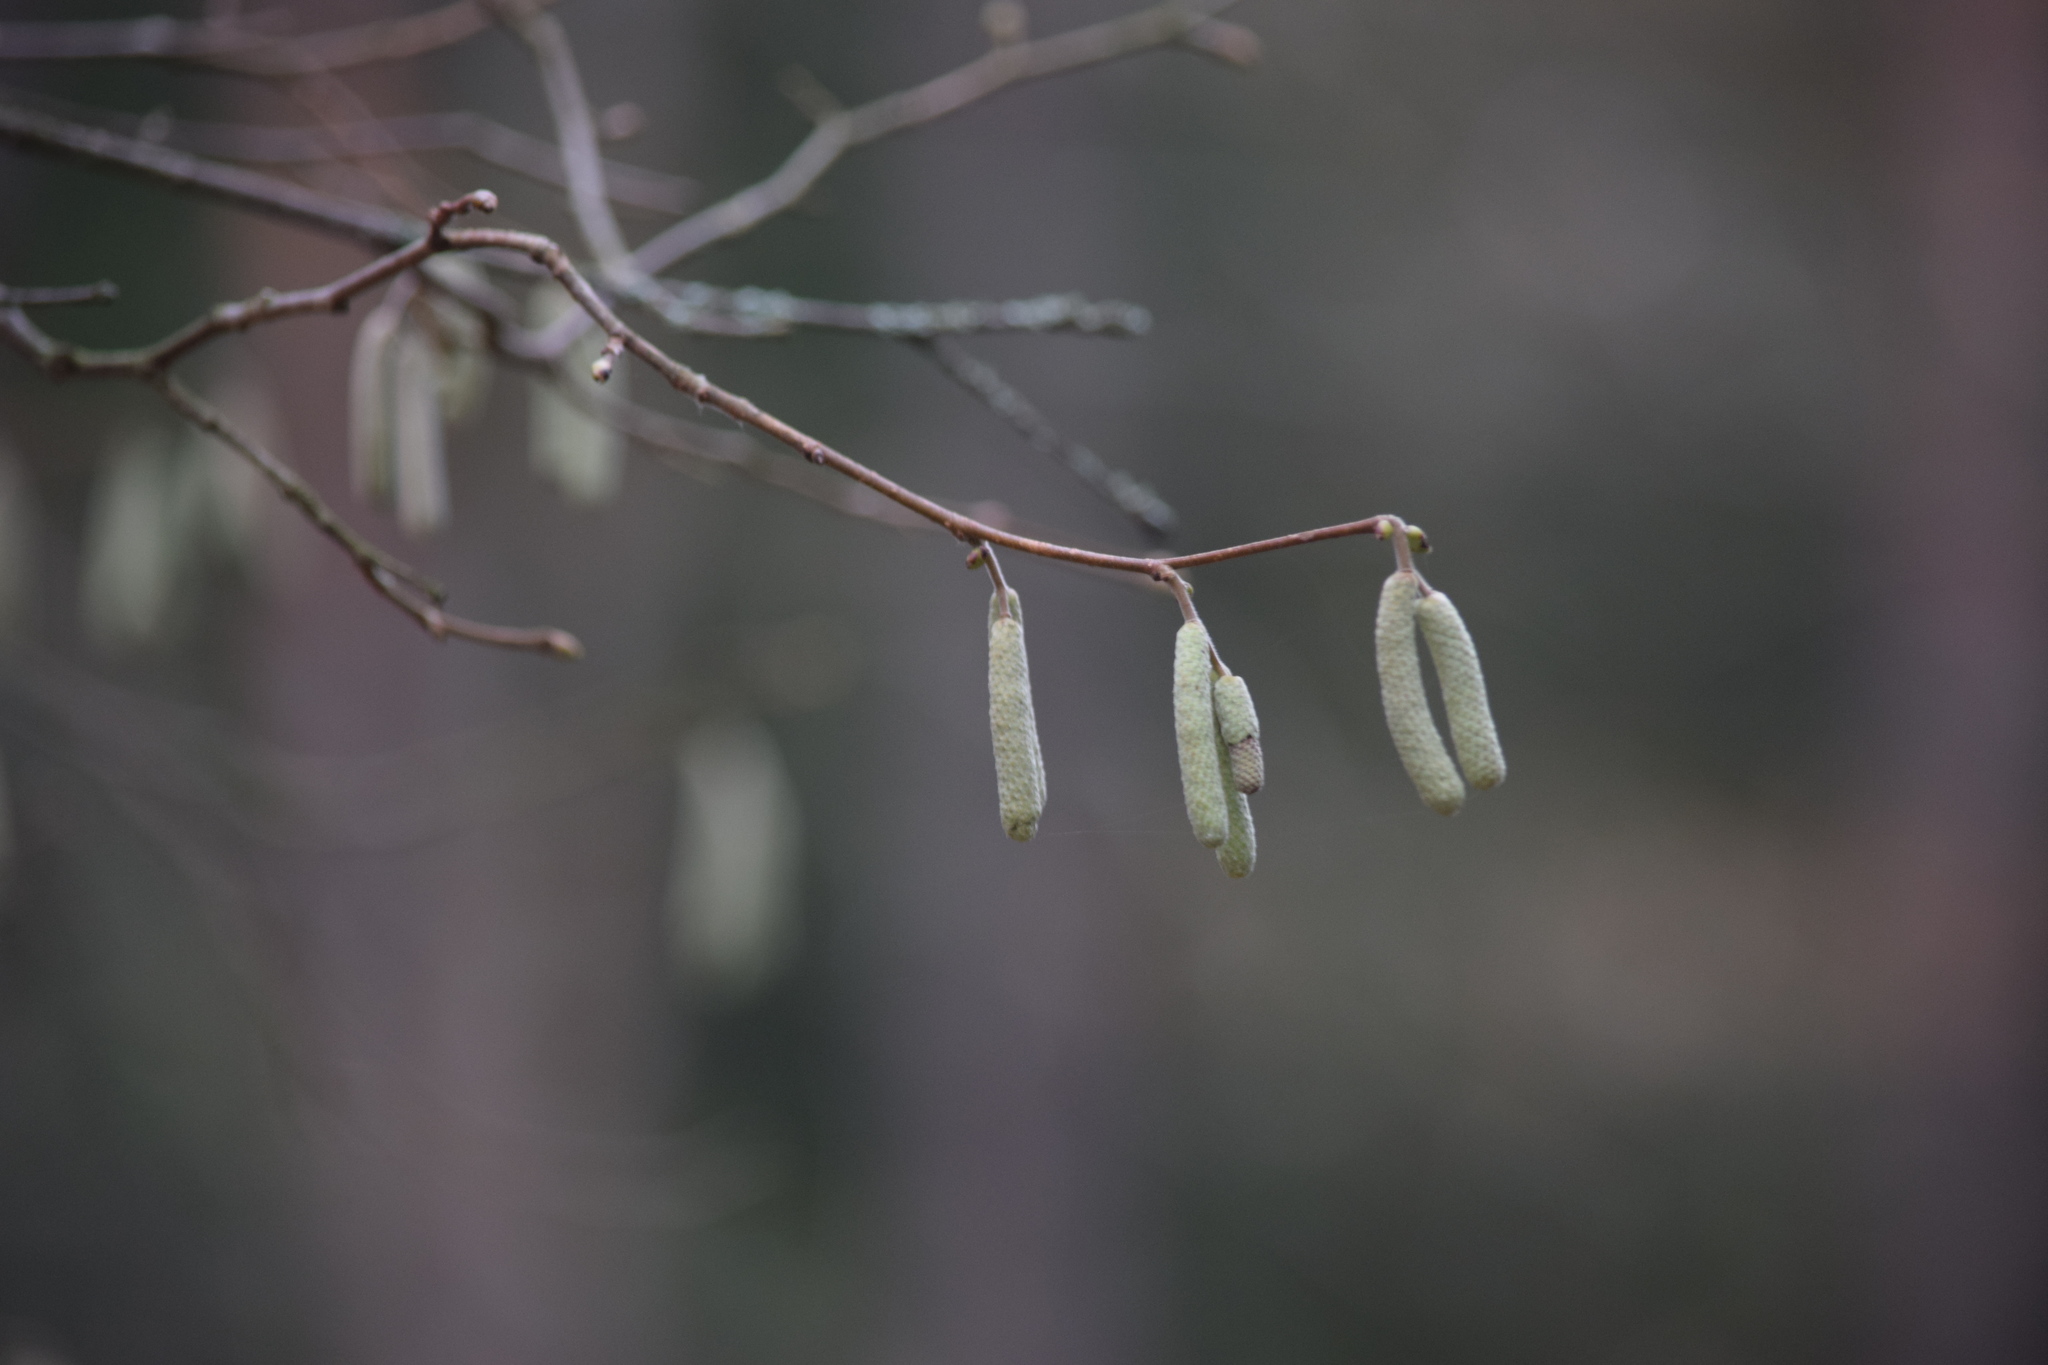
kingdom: Plantae
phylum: Tracheophyta
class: Magnoliopsida
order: Fagales
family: Betulaceae
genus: Corylus
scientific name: Corylus avellana
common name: European hazel
